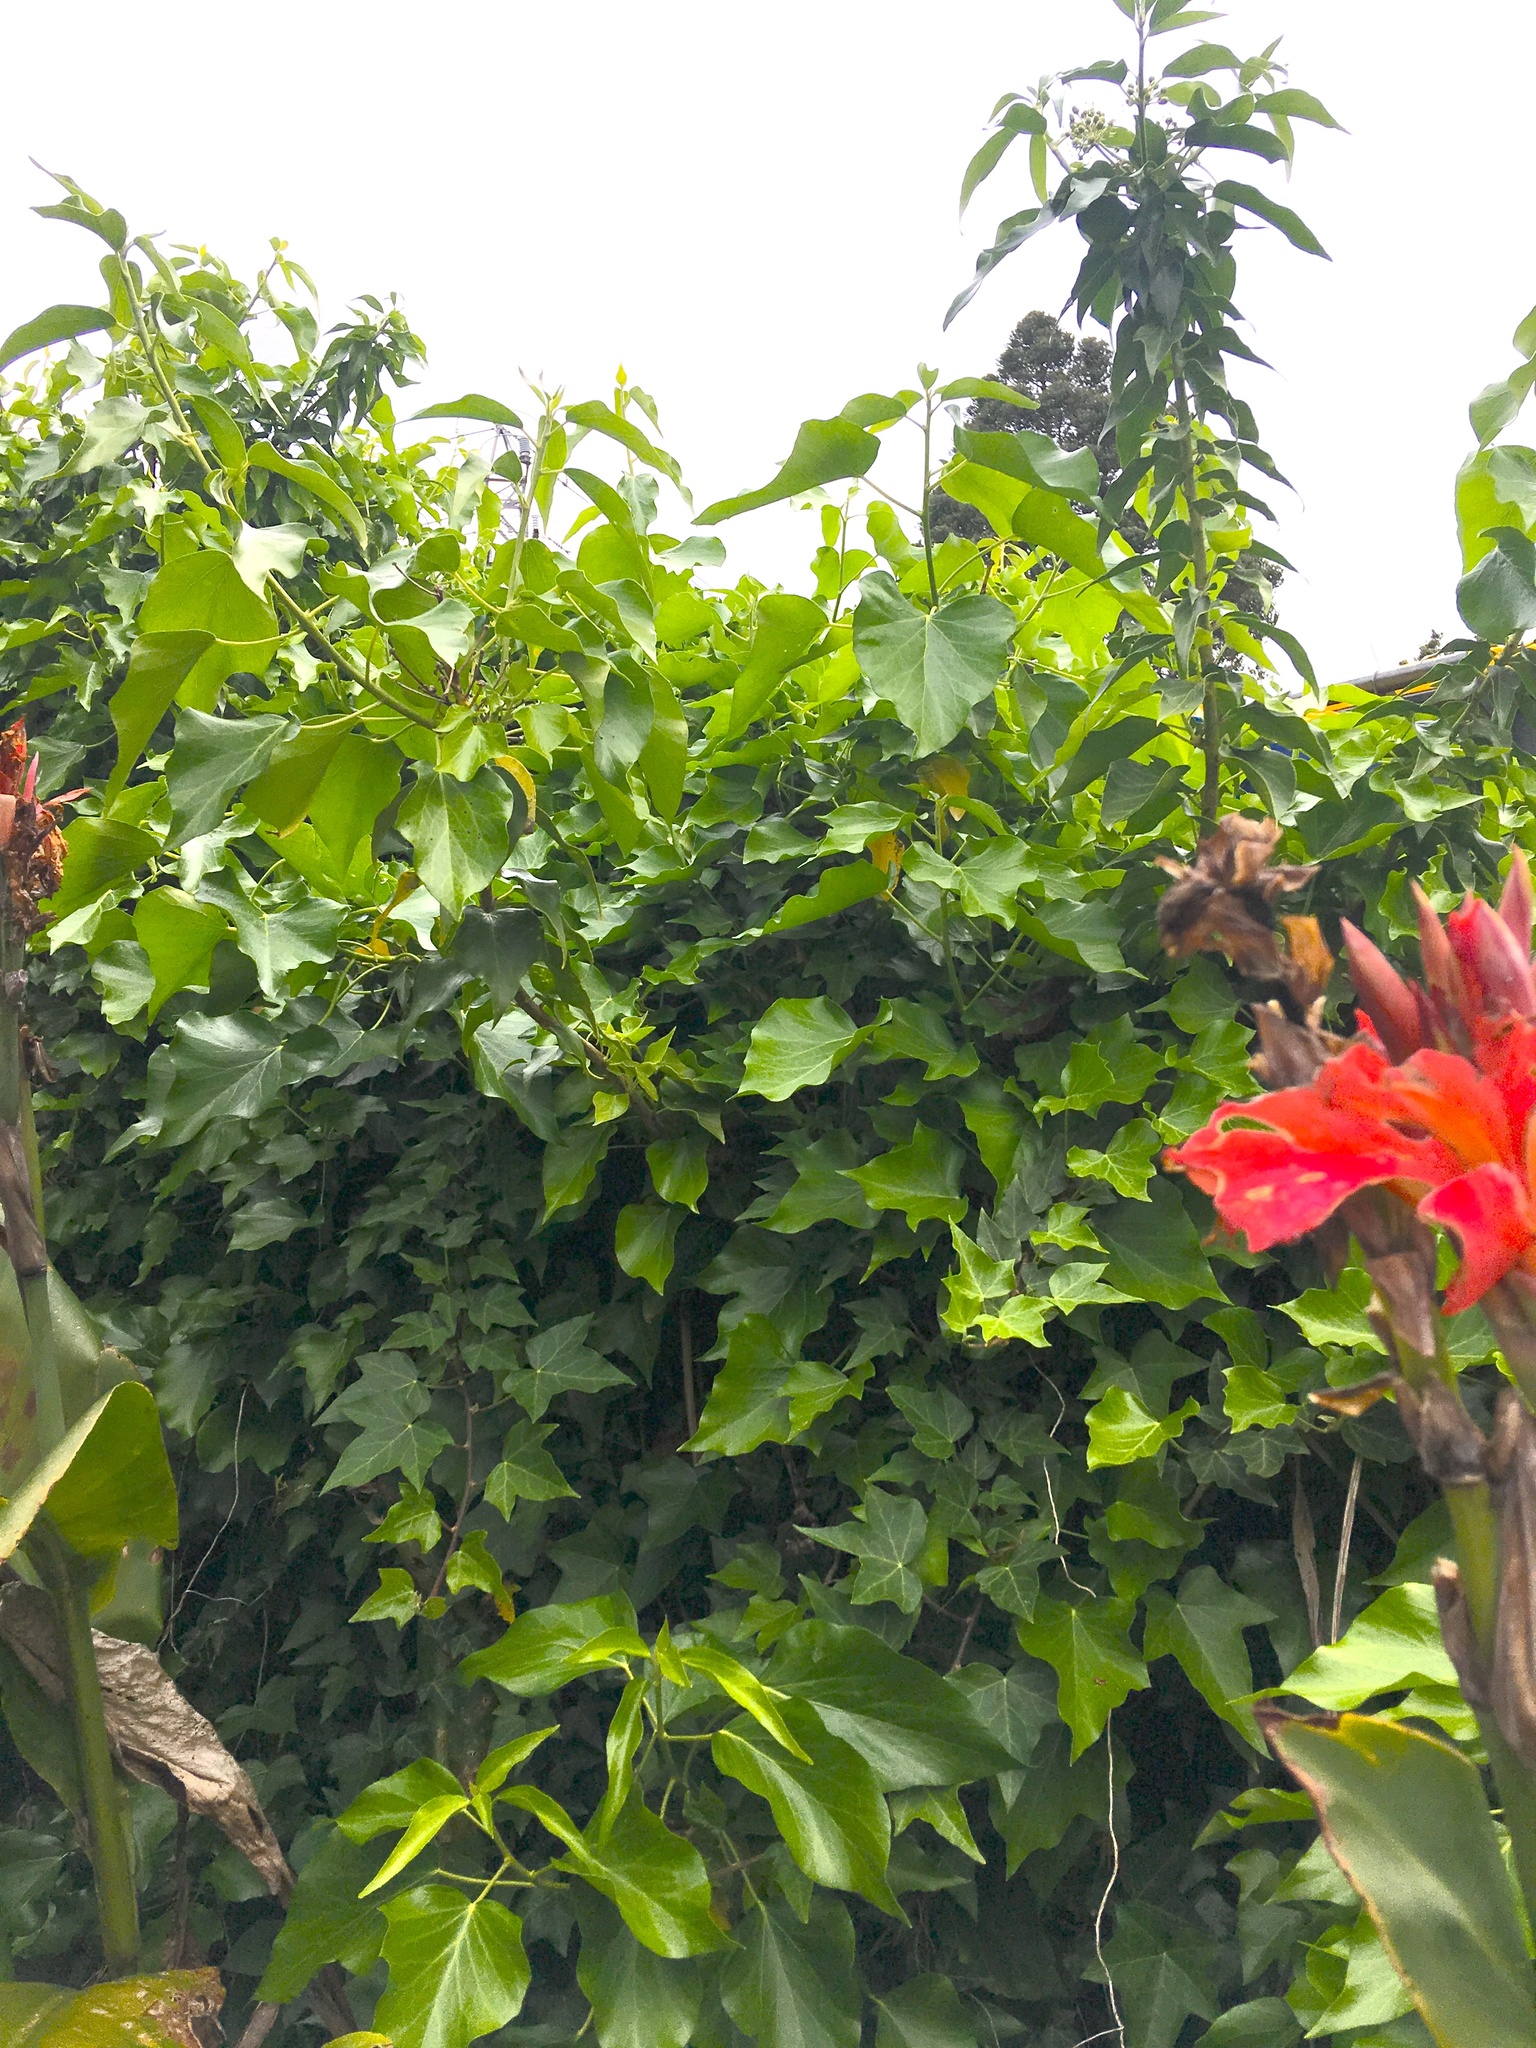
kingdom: Plantae
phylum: Tracheophyta
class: Magnoliopsida
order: Apiales
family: Araliaceae
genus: Hedera
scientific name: Hedera helix
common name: Ivy
